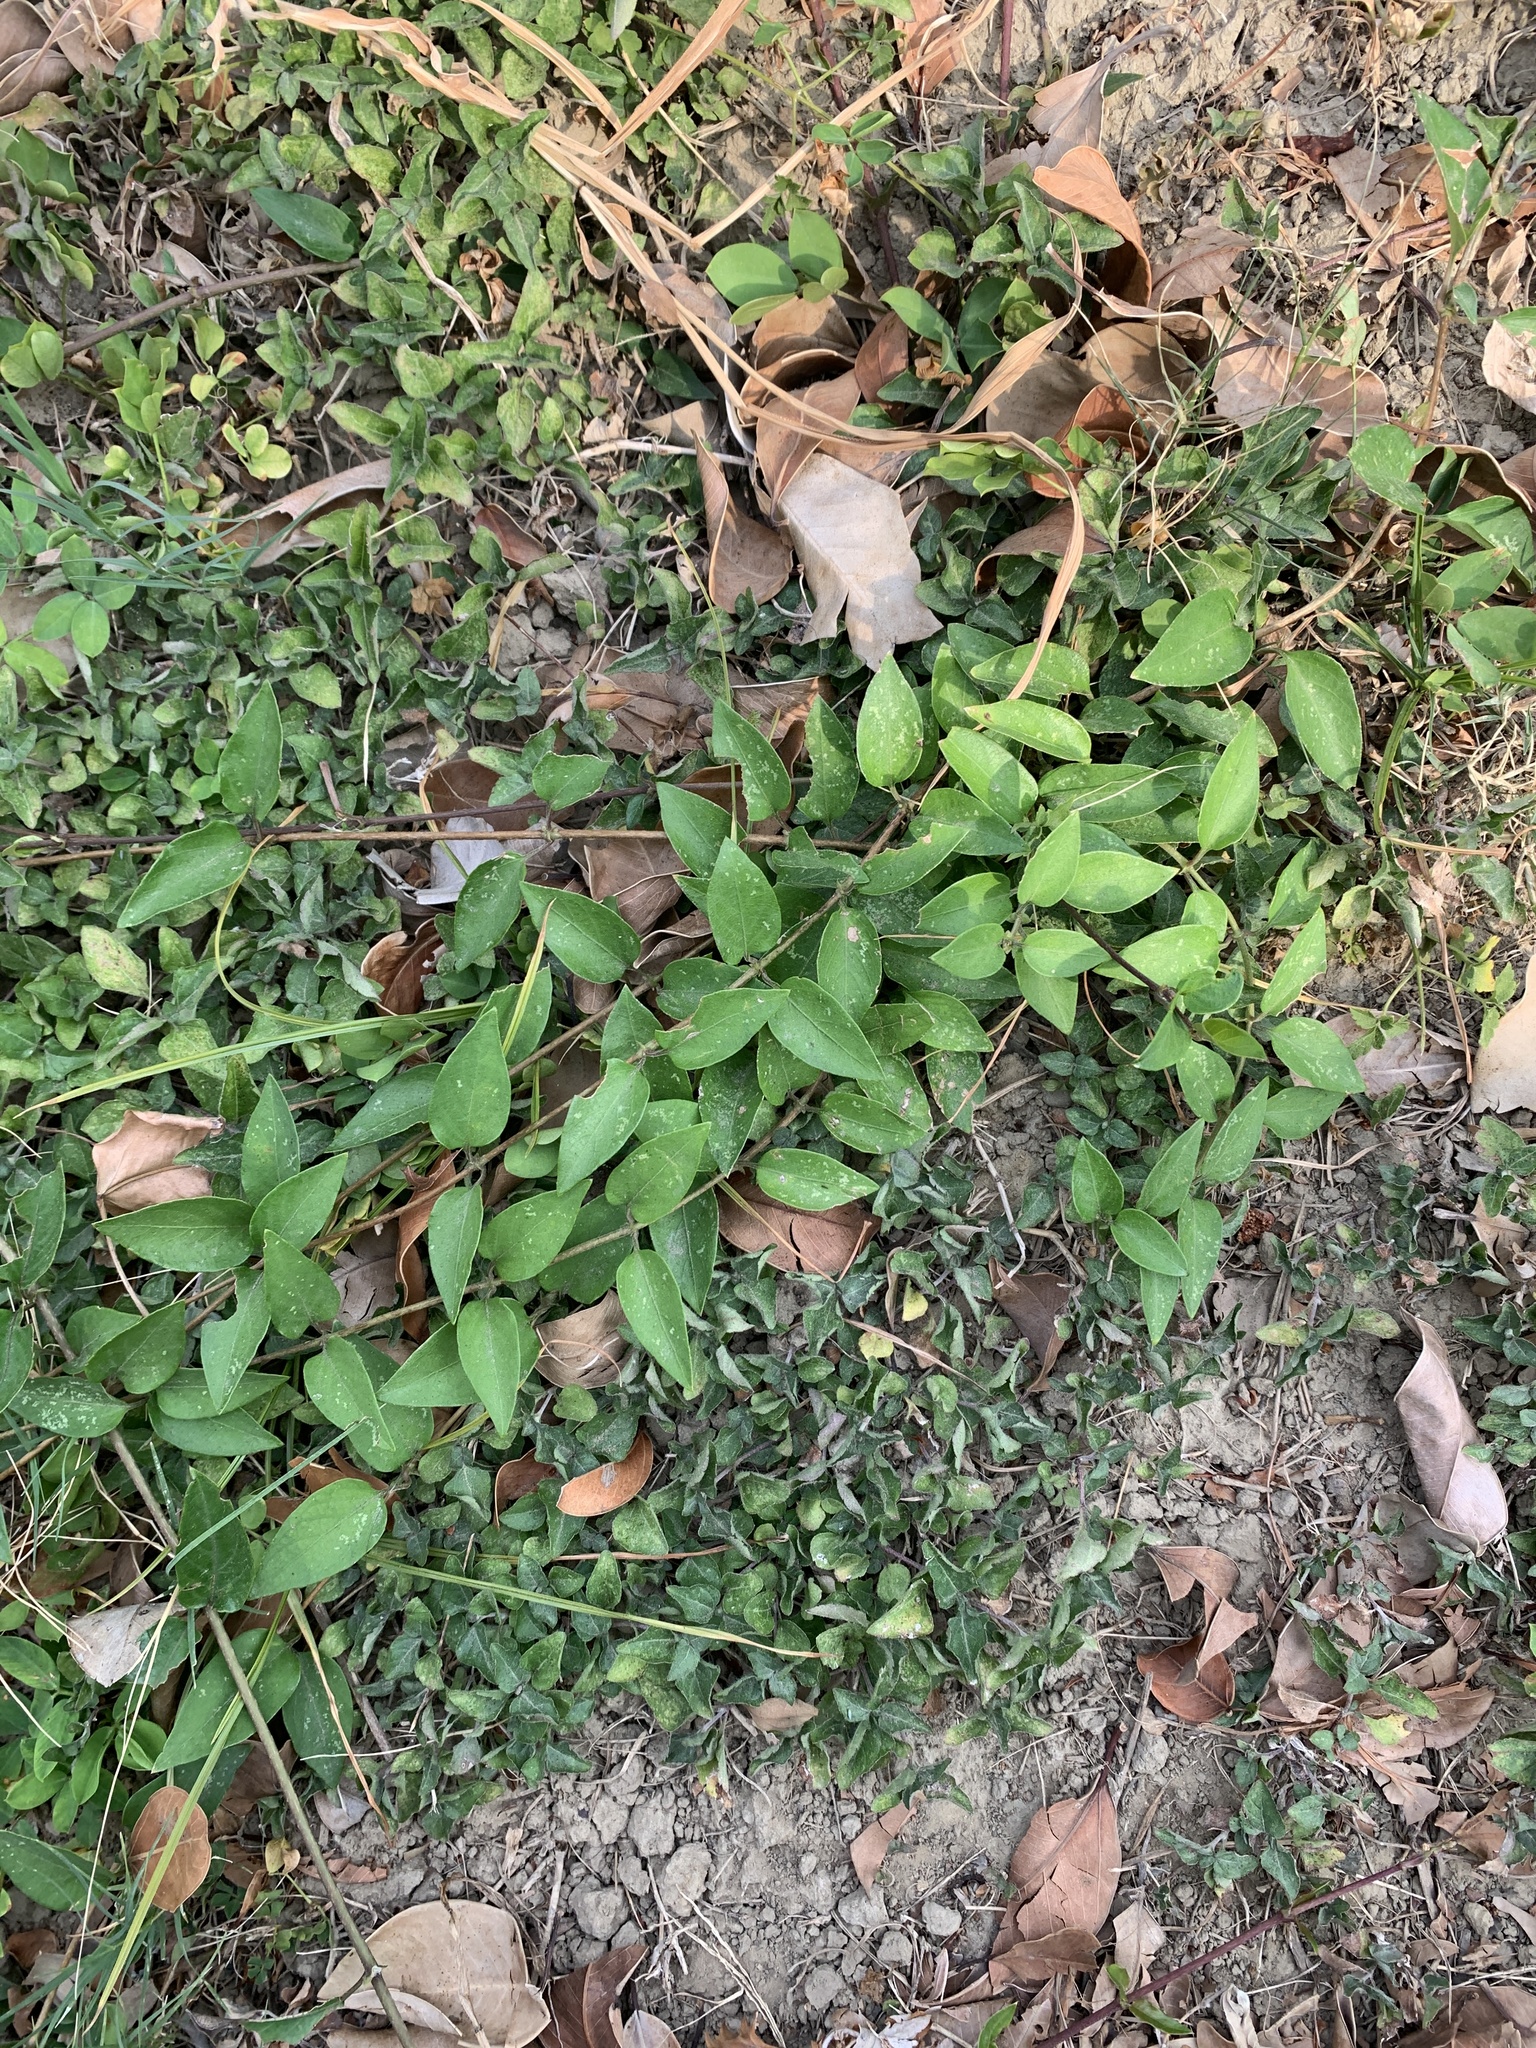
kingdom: Plantae
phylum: Tracheophyta
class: Magnoliopsida
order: Gentianales
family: Rubiaceae
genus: Paederia
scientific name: Paederia foetida
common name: Stinkvine
